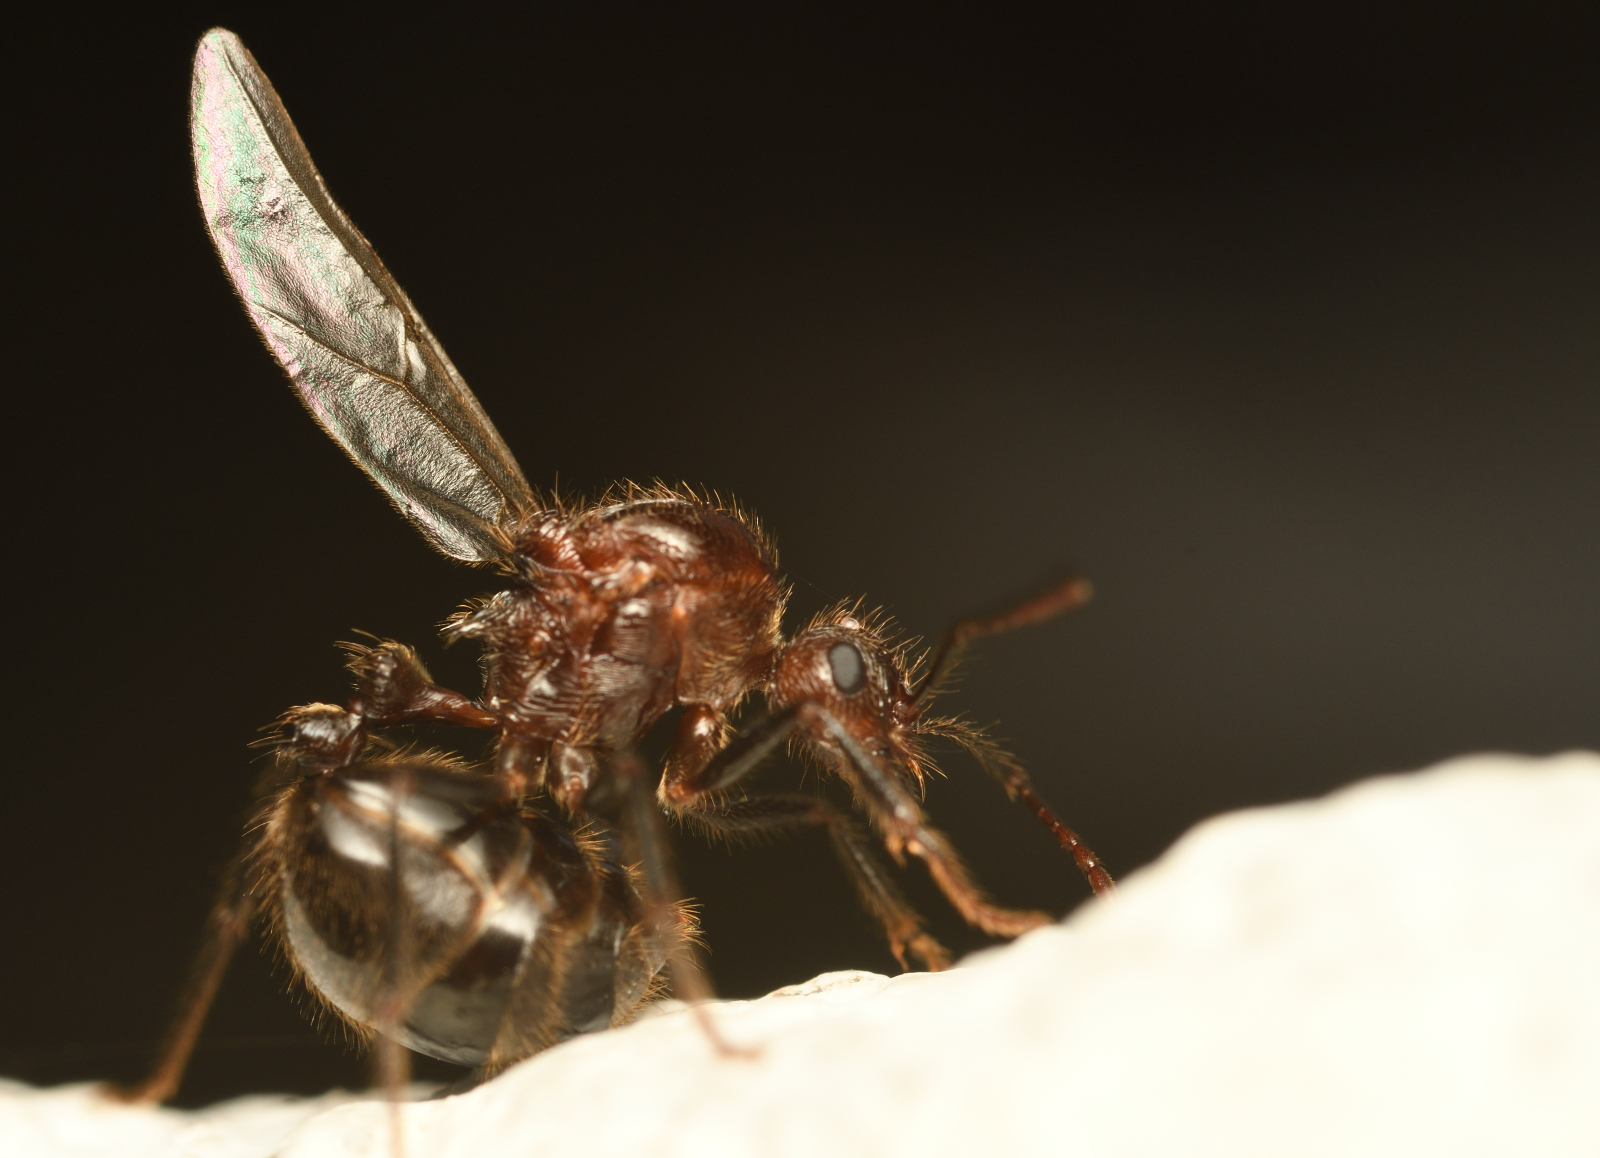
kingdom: Animalia
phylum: Arthropoda
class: Insecta
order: Hymenoptera
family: Formicidae
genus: Myrmicaria
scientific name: Myrmicaria brunnea
